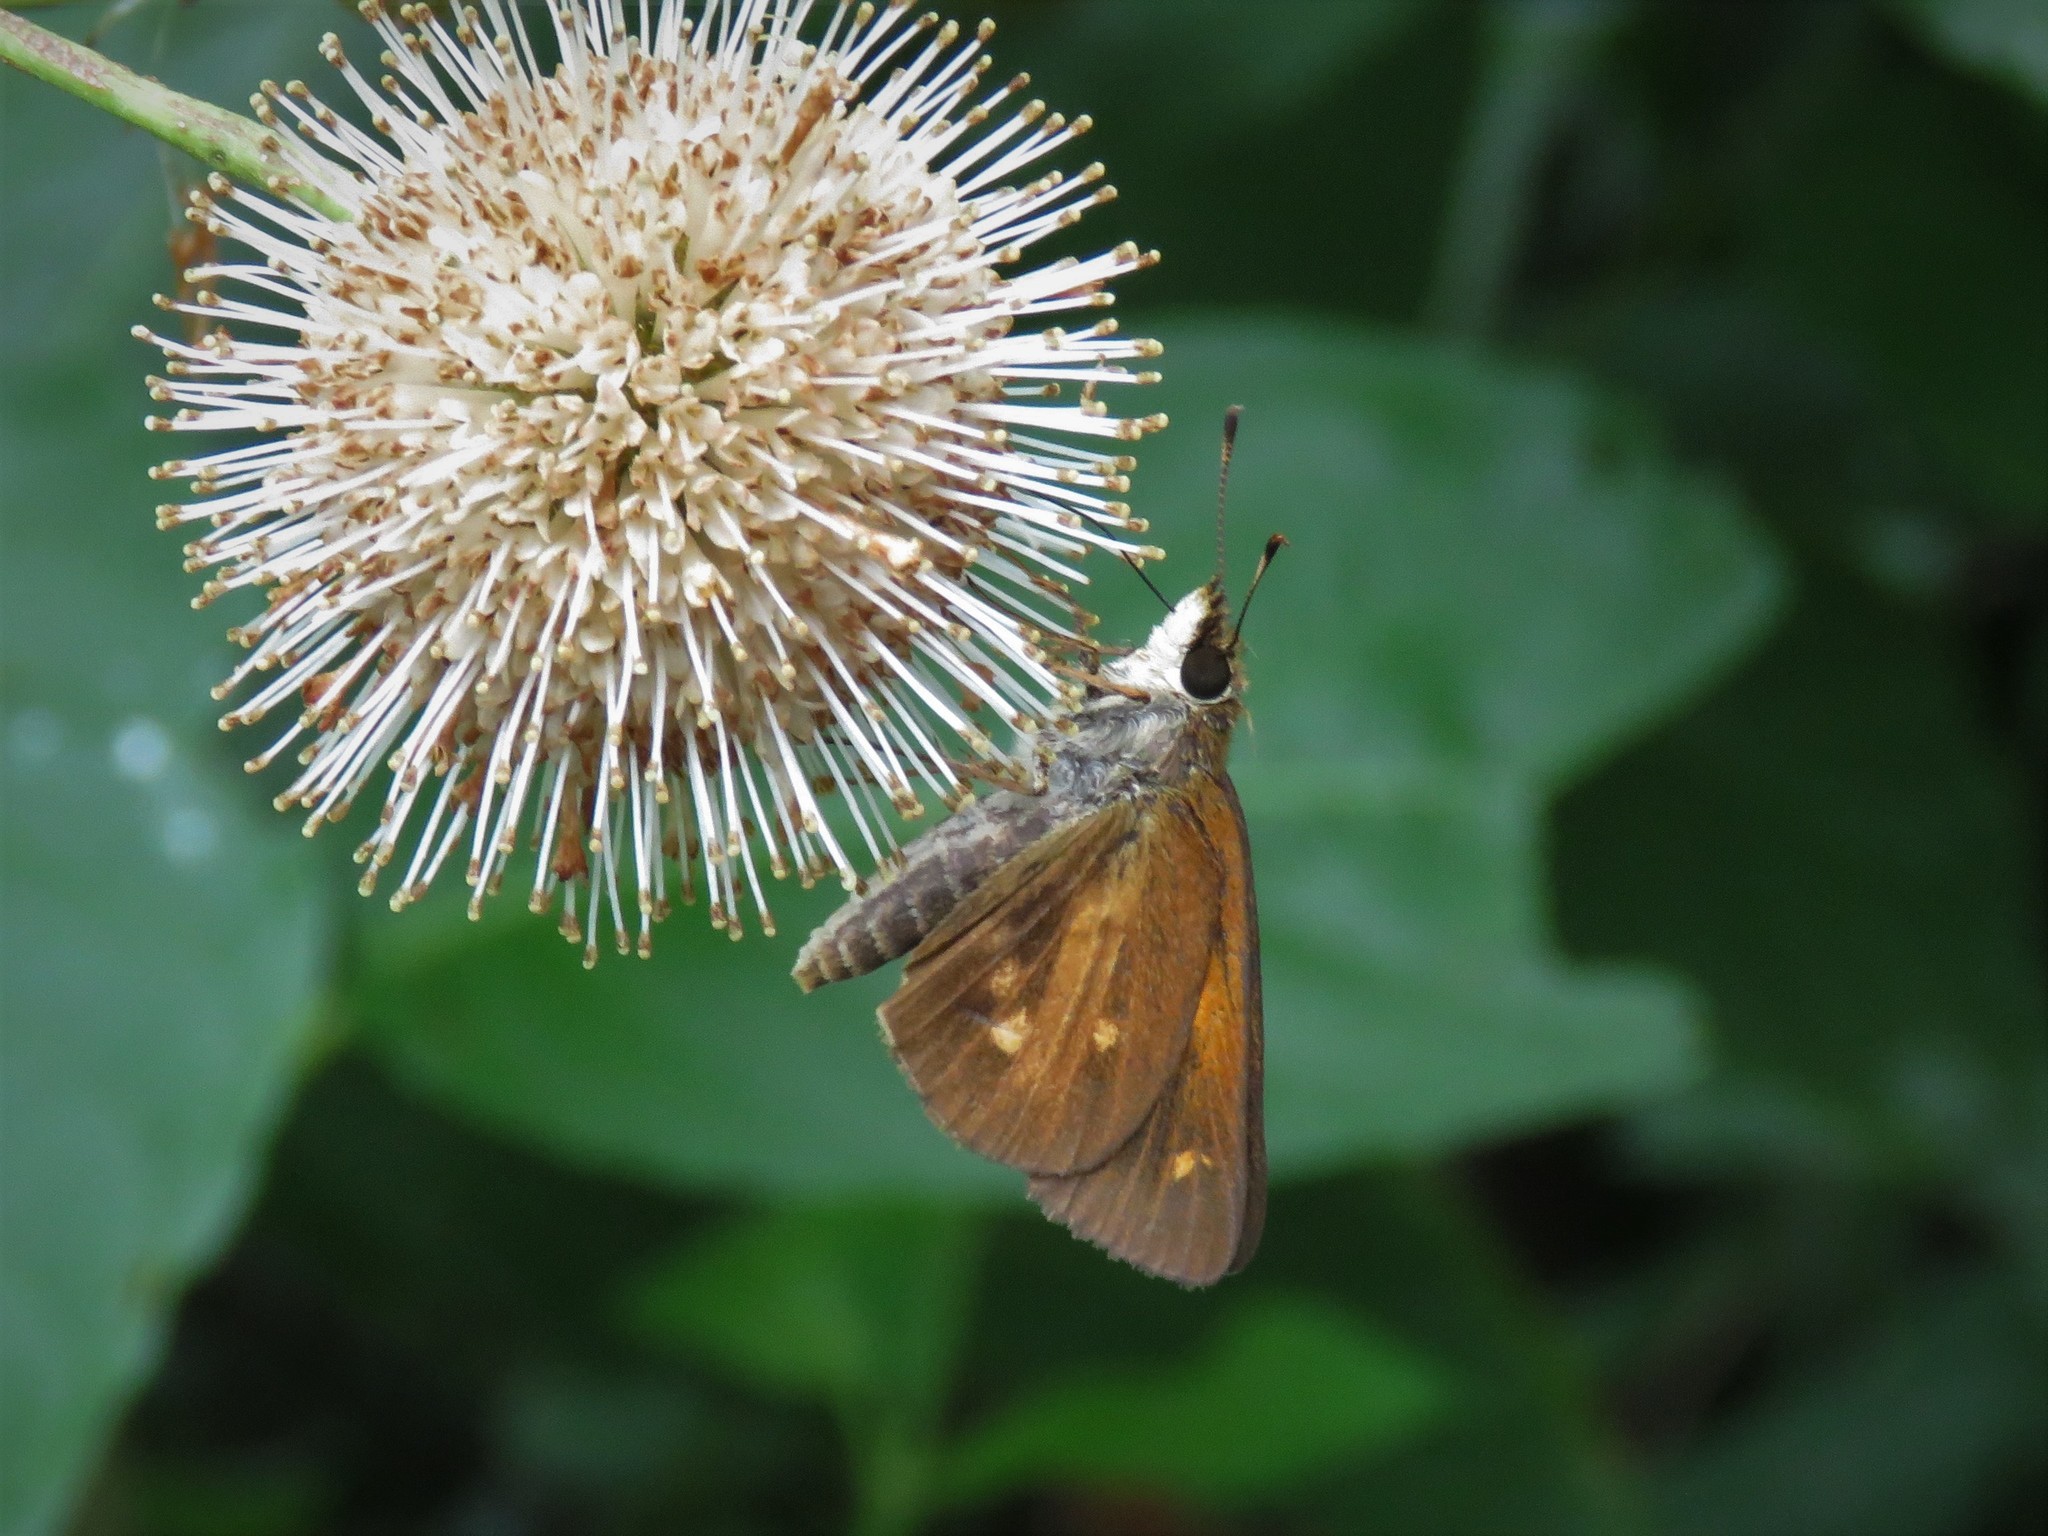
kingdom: Animalia
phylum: Arthropoda
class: Insecta
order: Lepidoptera
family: Hesperiidae
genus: Poanes
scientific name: Poanes viator
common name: Broad-winged skipper
